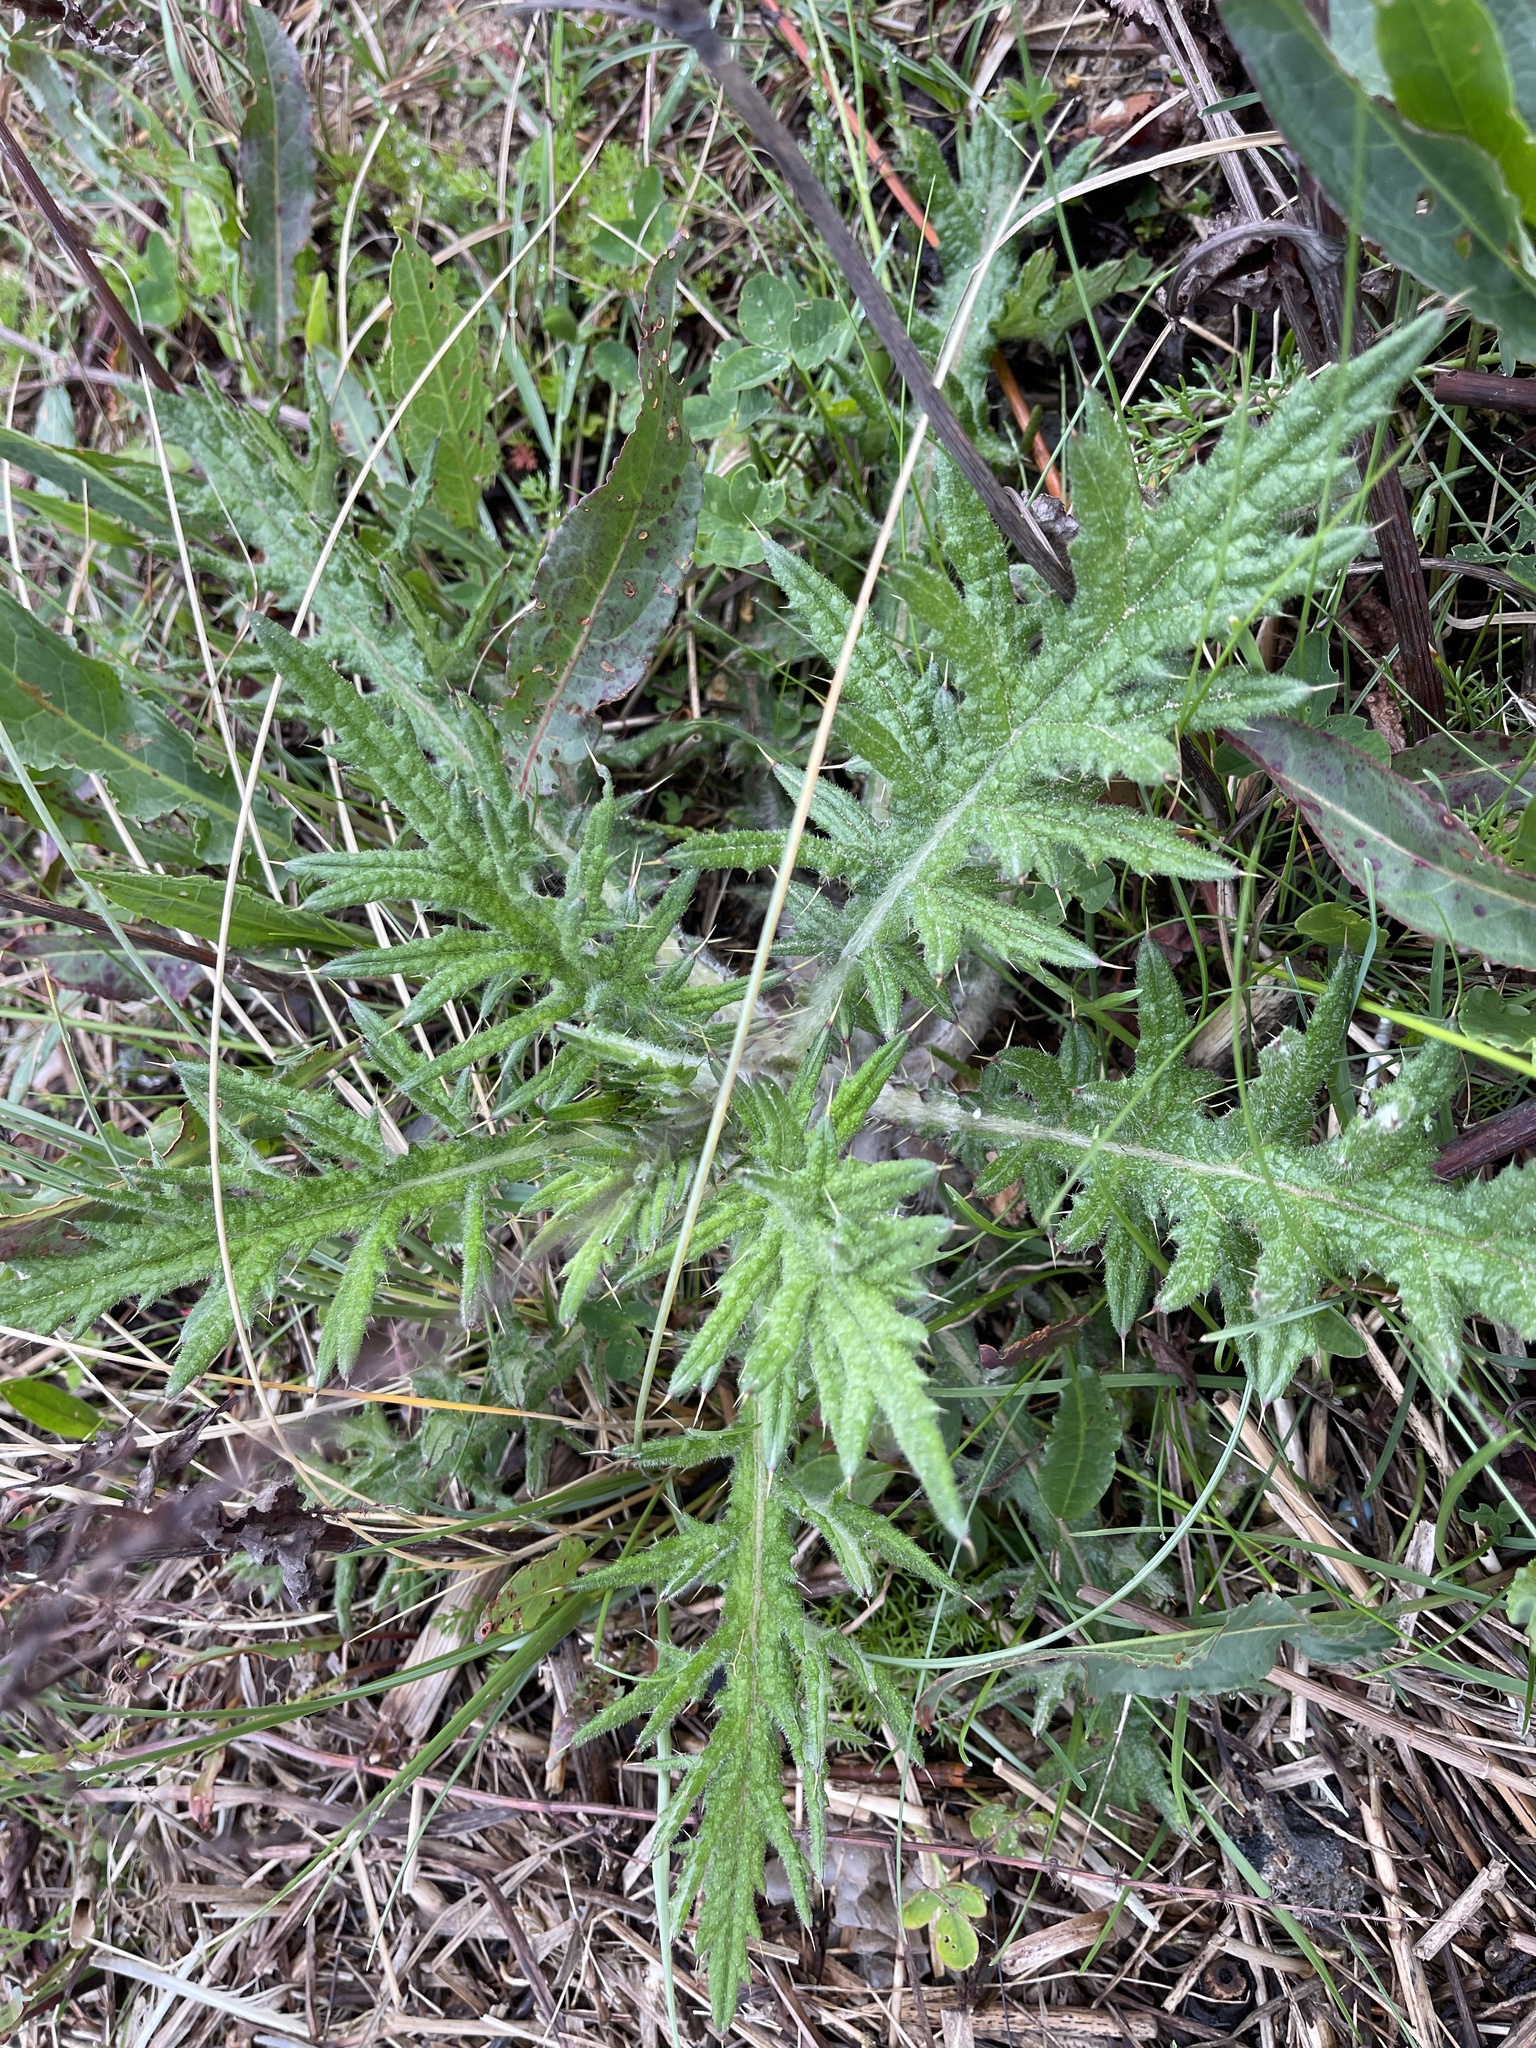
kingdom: Plantae
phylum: Tracheophyta
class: Magnoliopsida
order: Asterales
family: Asteraceae
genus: Cirsium
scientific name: Cirsium vulgare
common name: Bull thistle
